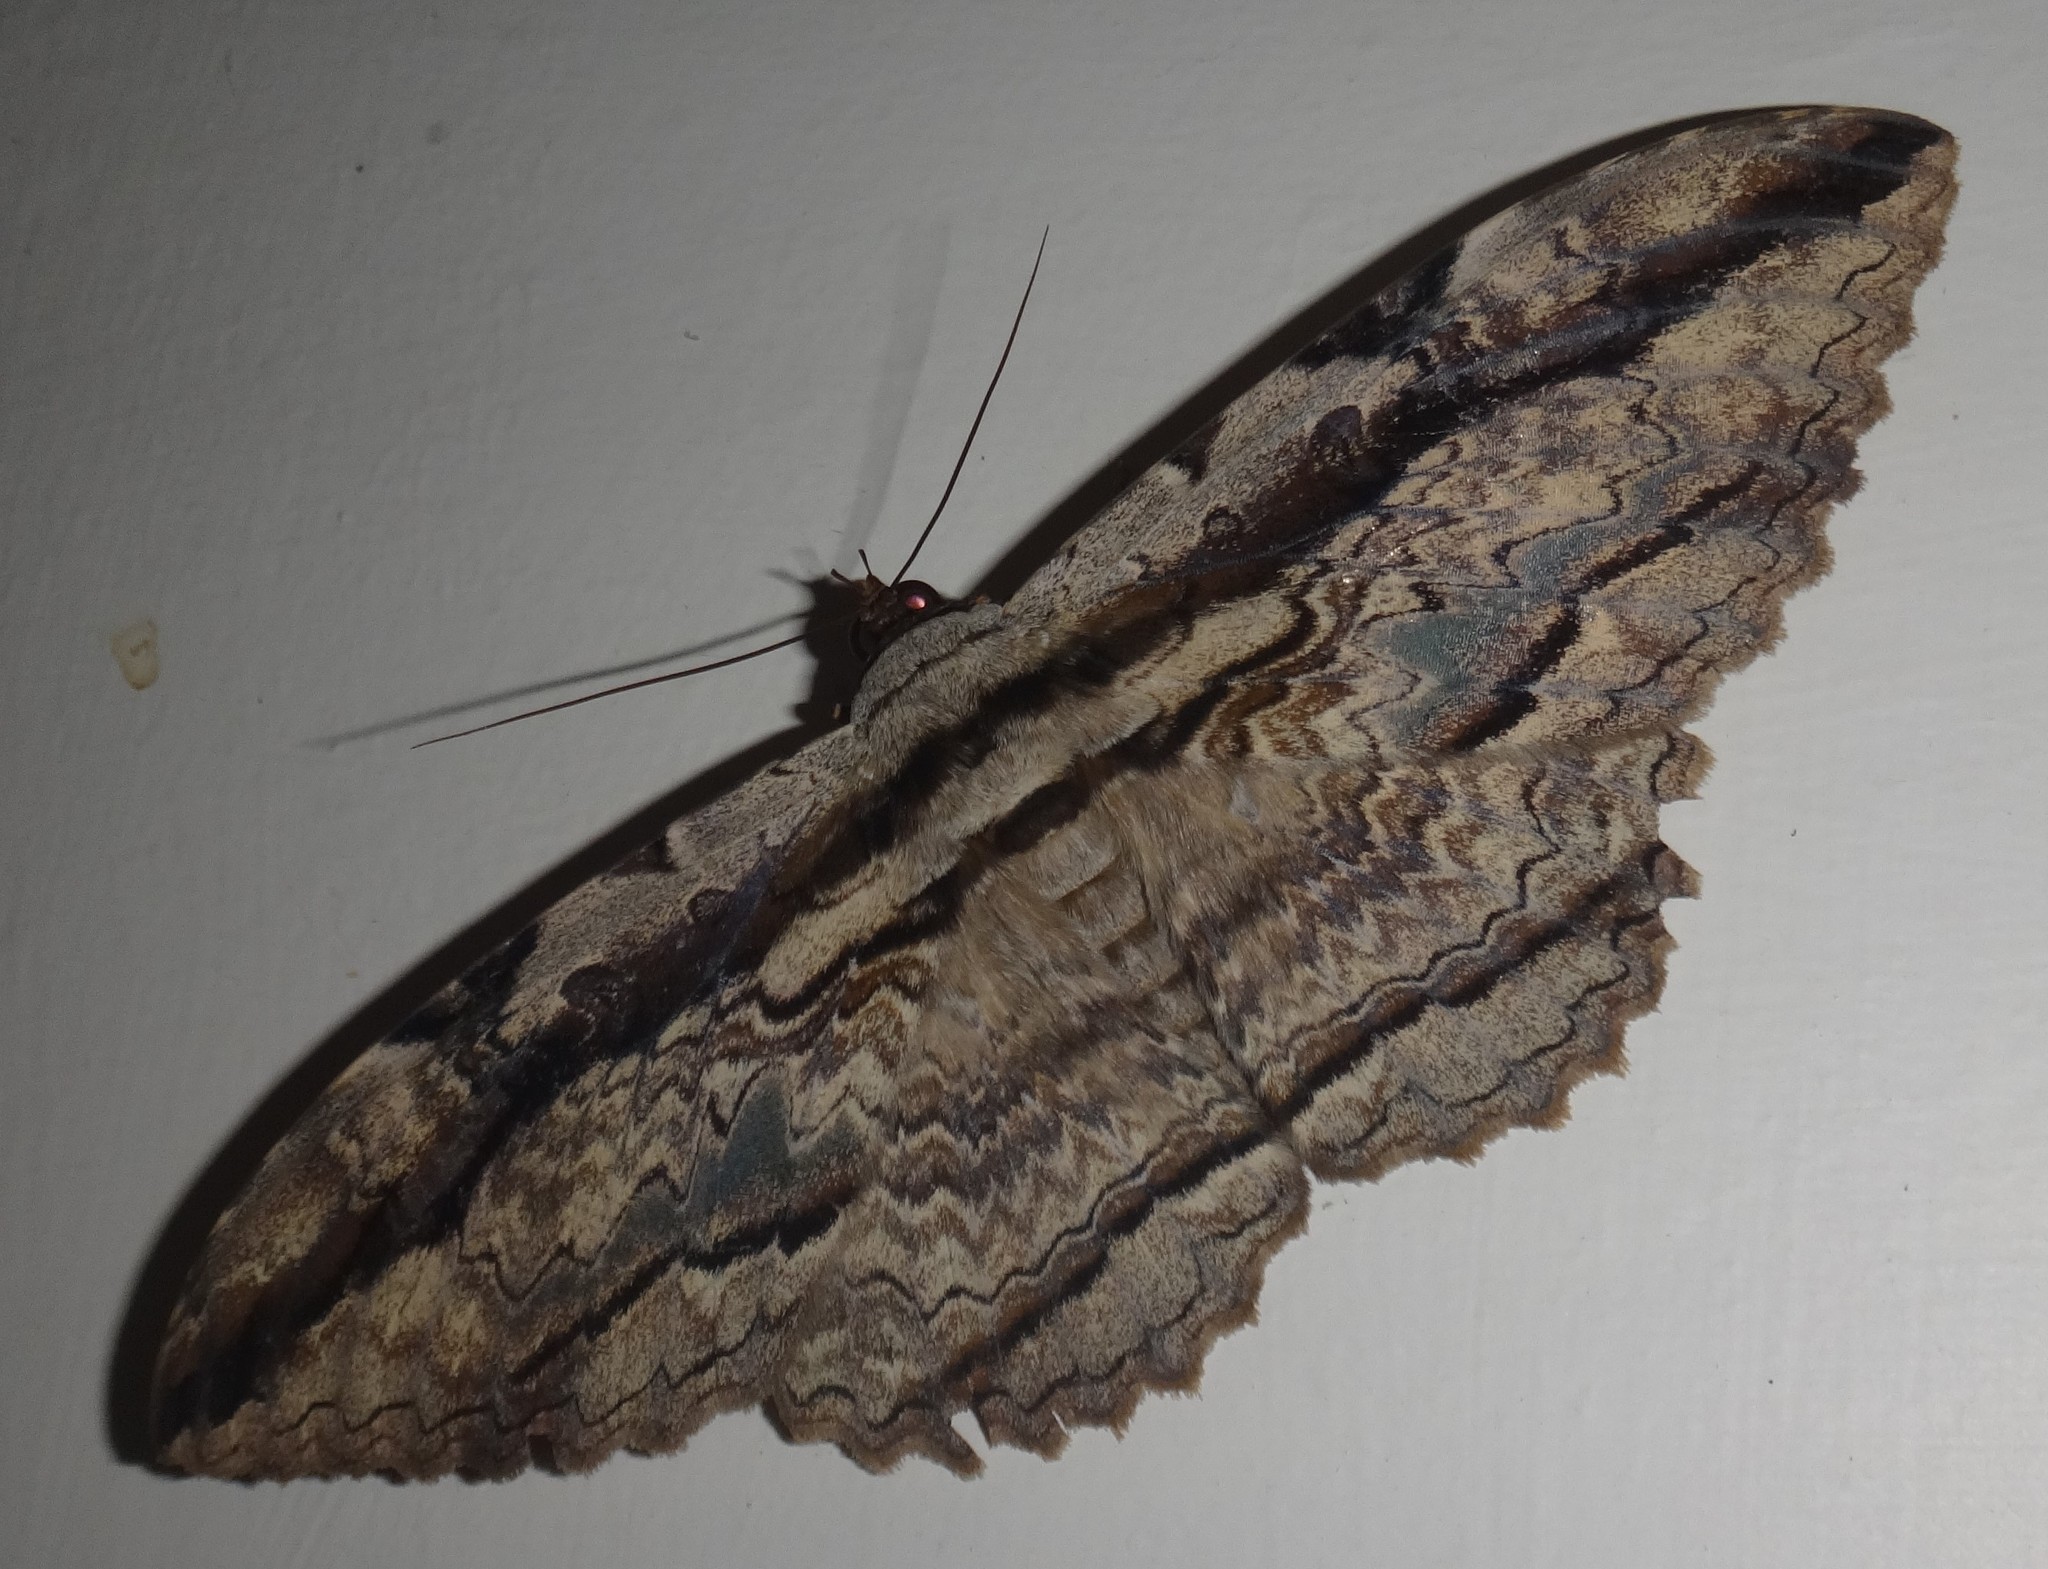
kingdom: Animalia
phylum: Arthropoda
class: Insecta
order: Lepidoptera
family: Erebidae
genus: Thysania
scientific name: Thysania zenobia
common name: Owl moth
